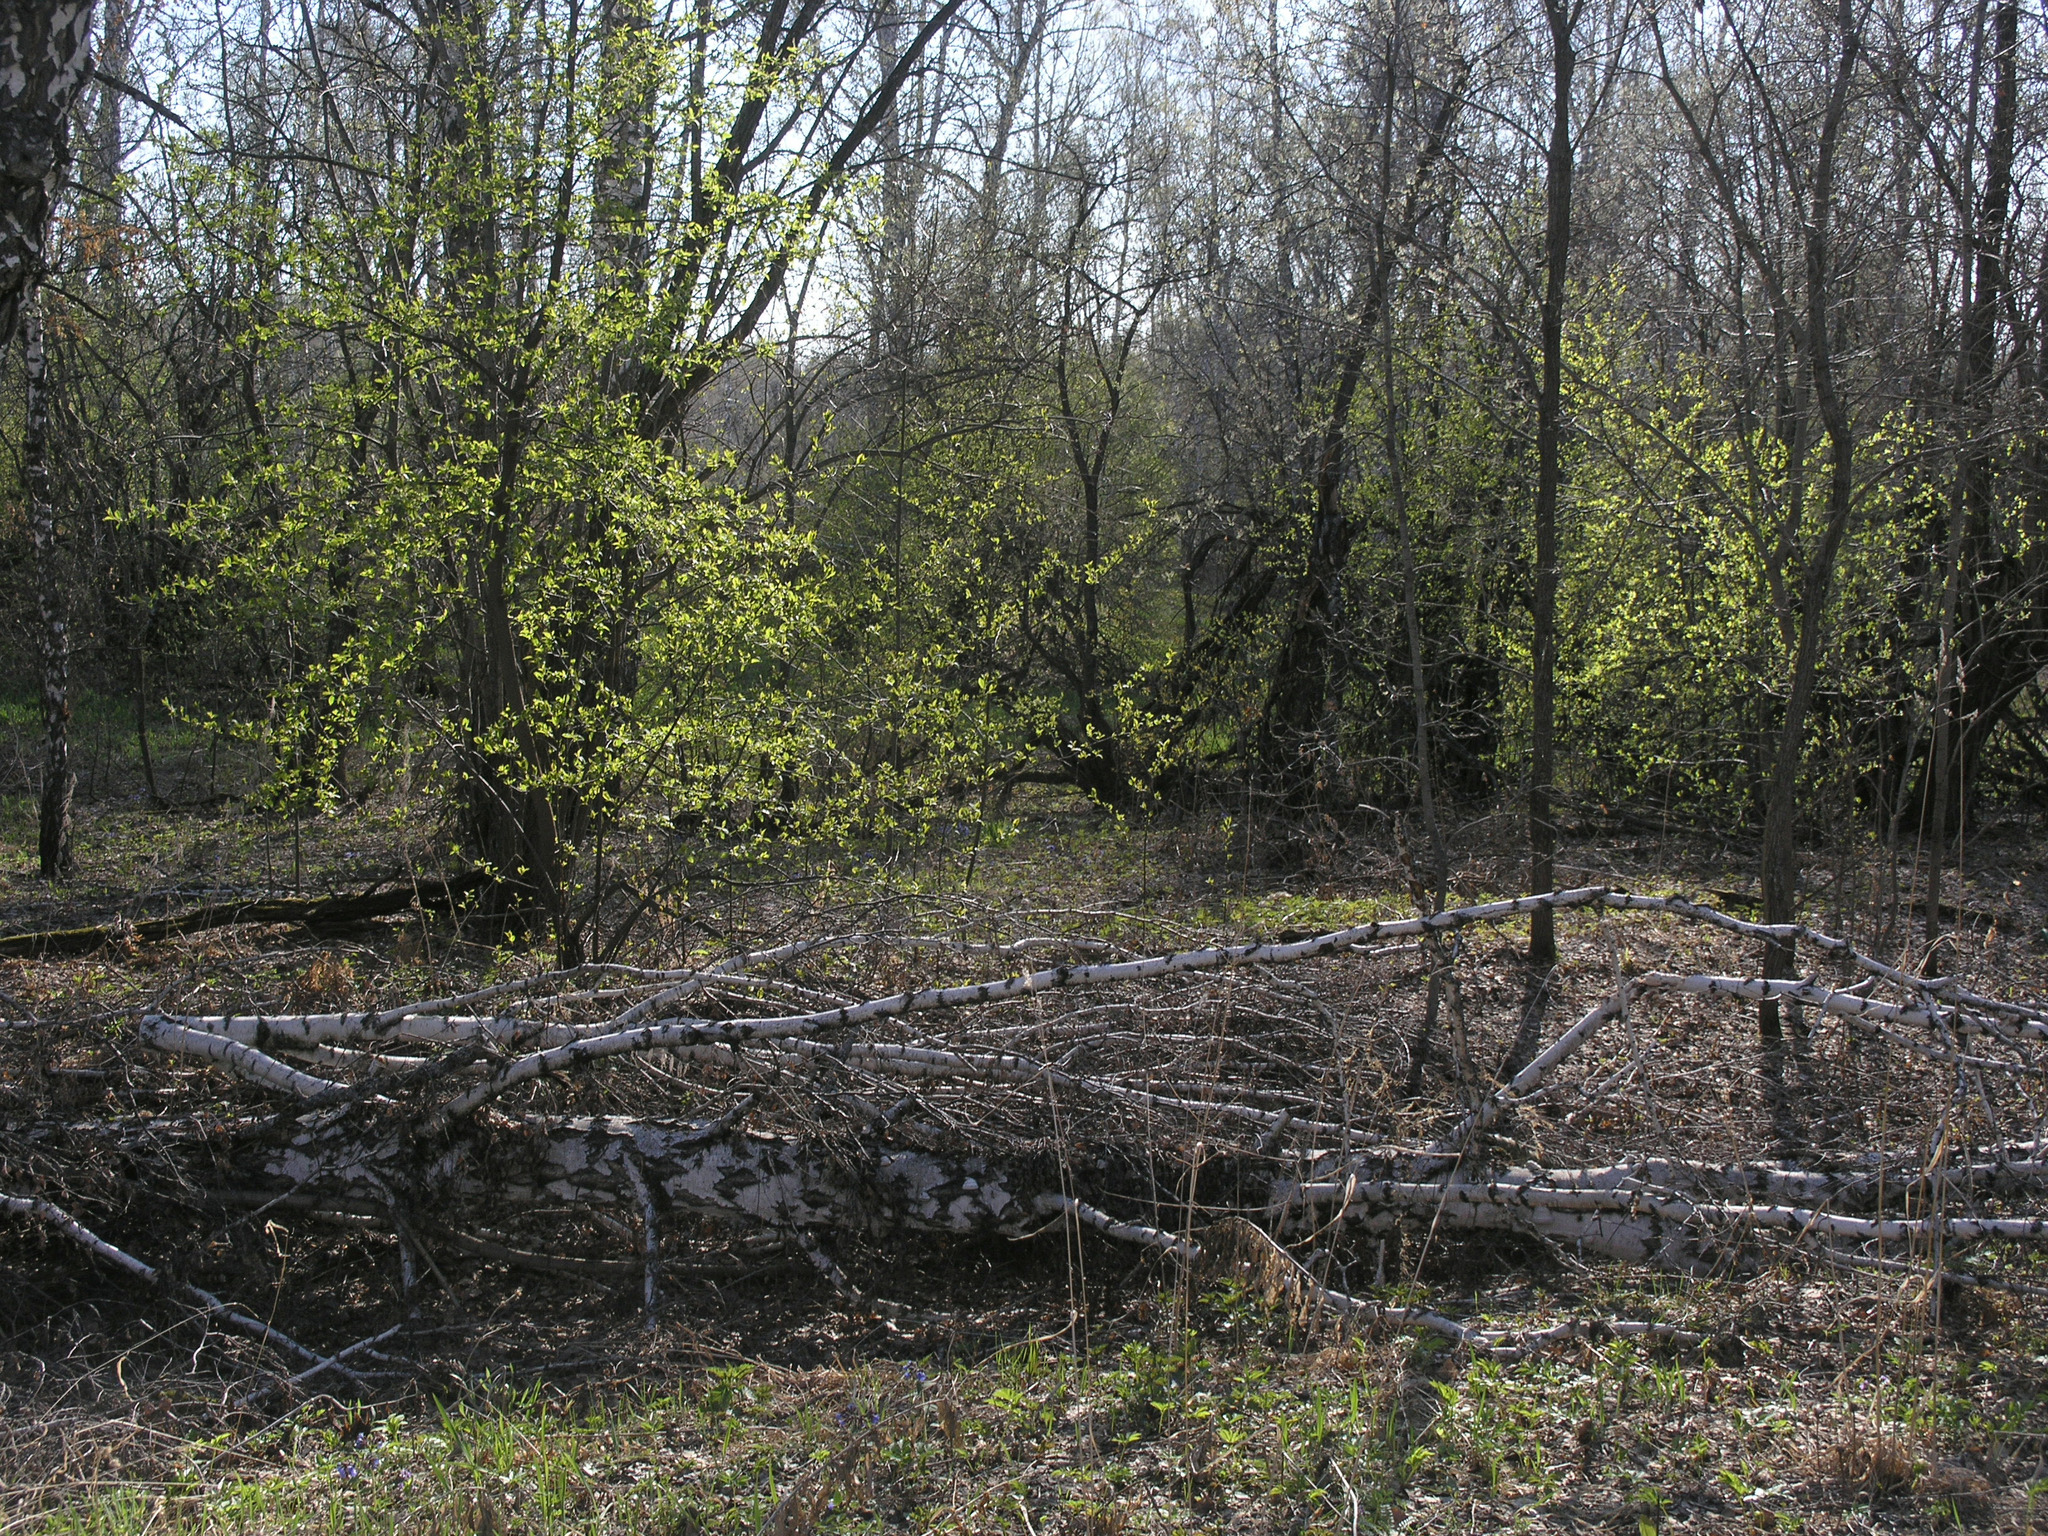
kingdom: Plantae
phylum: Tracheophyta
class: Magnoliopsida
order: Rosales
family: Rosaceae
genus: Prunus
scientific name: Prunus padus
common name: Bird cherry
